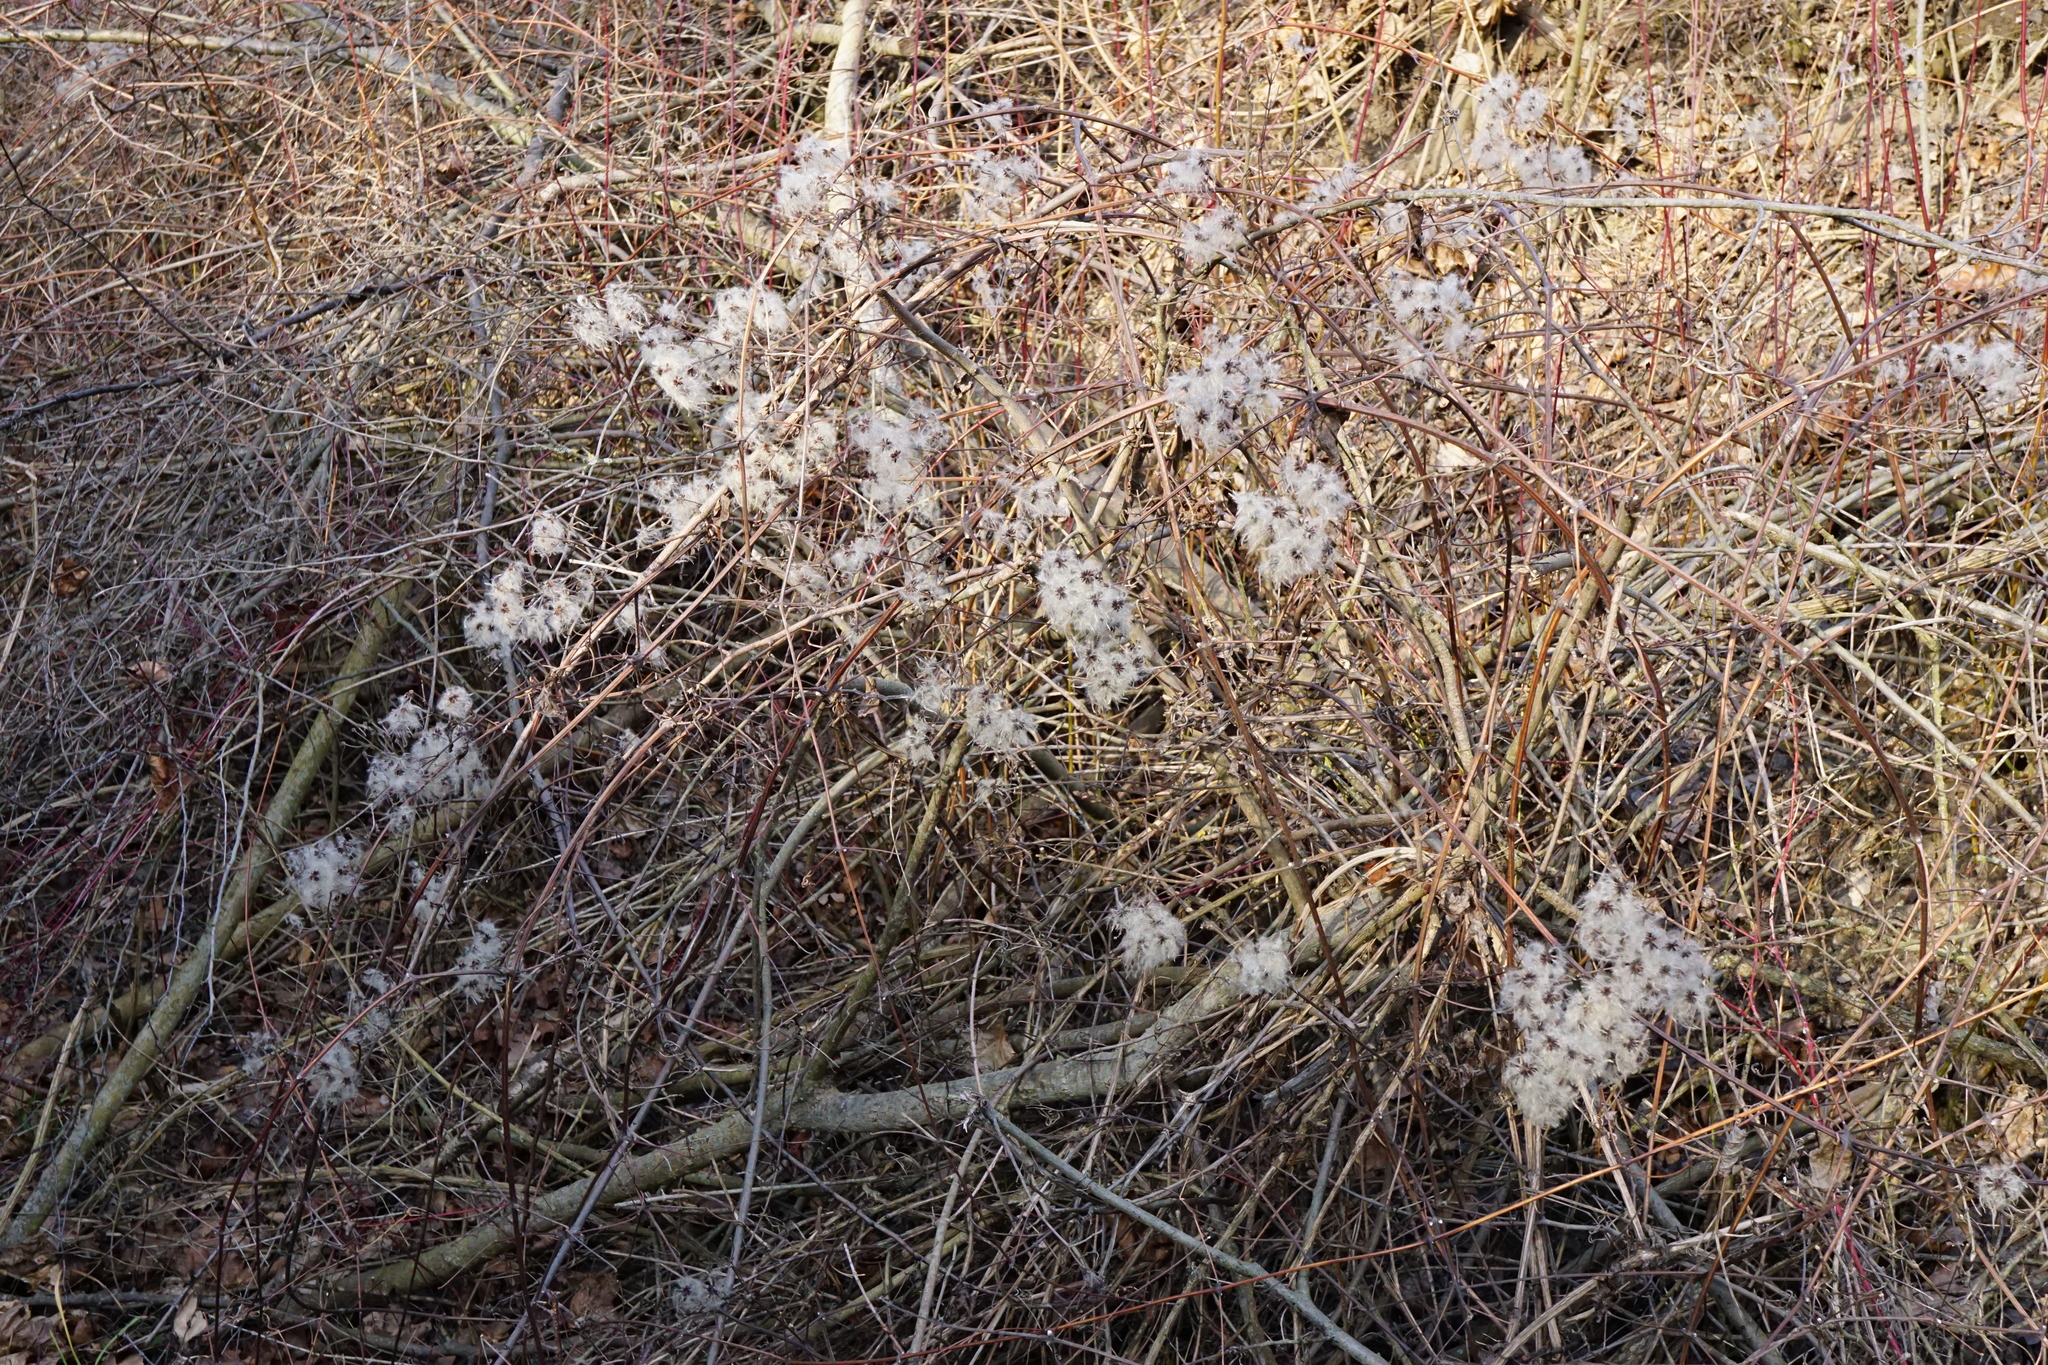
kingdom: Plantae
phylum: Tracheophyta
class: Magnoliopsida
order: Ranunculales
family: Ranunculaceae
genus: Clematis
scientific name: Clematis vitalba
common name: Evergreen clematis
